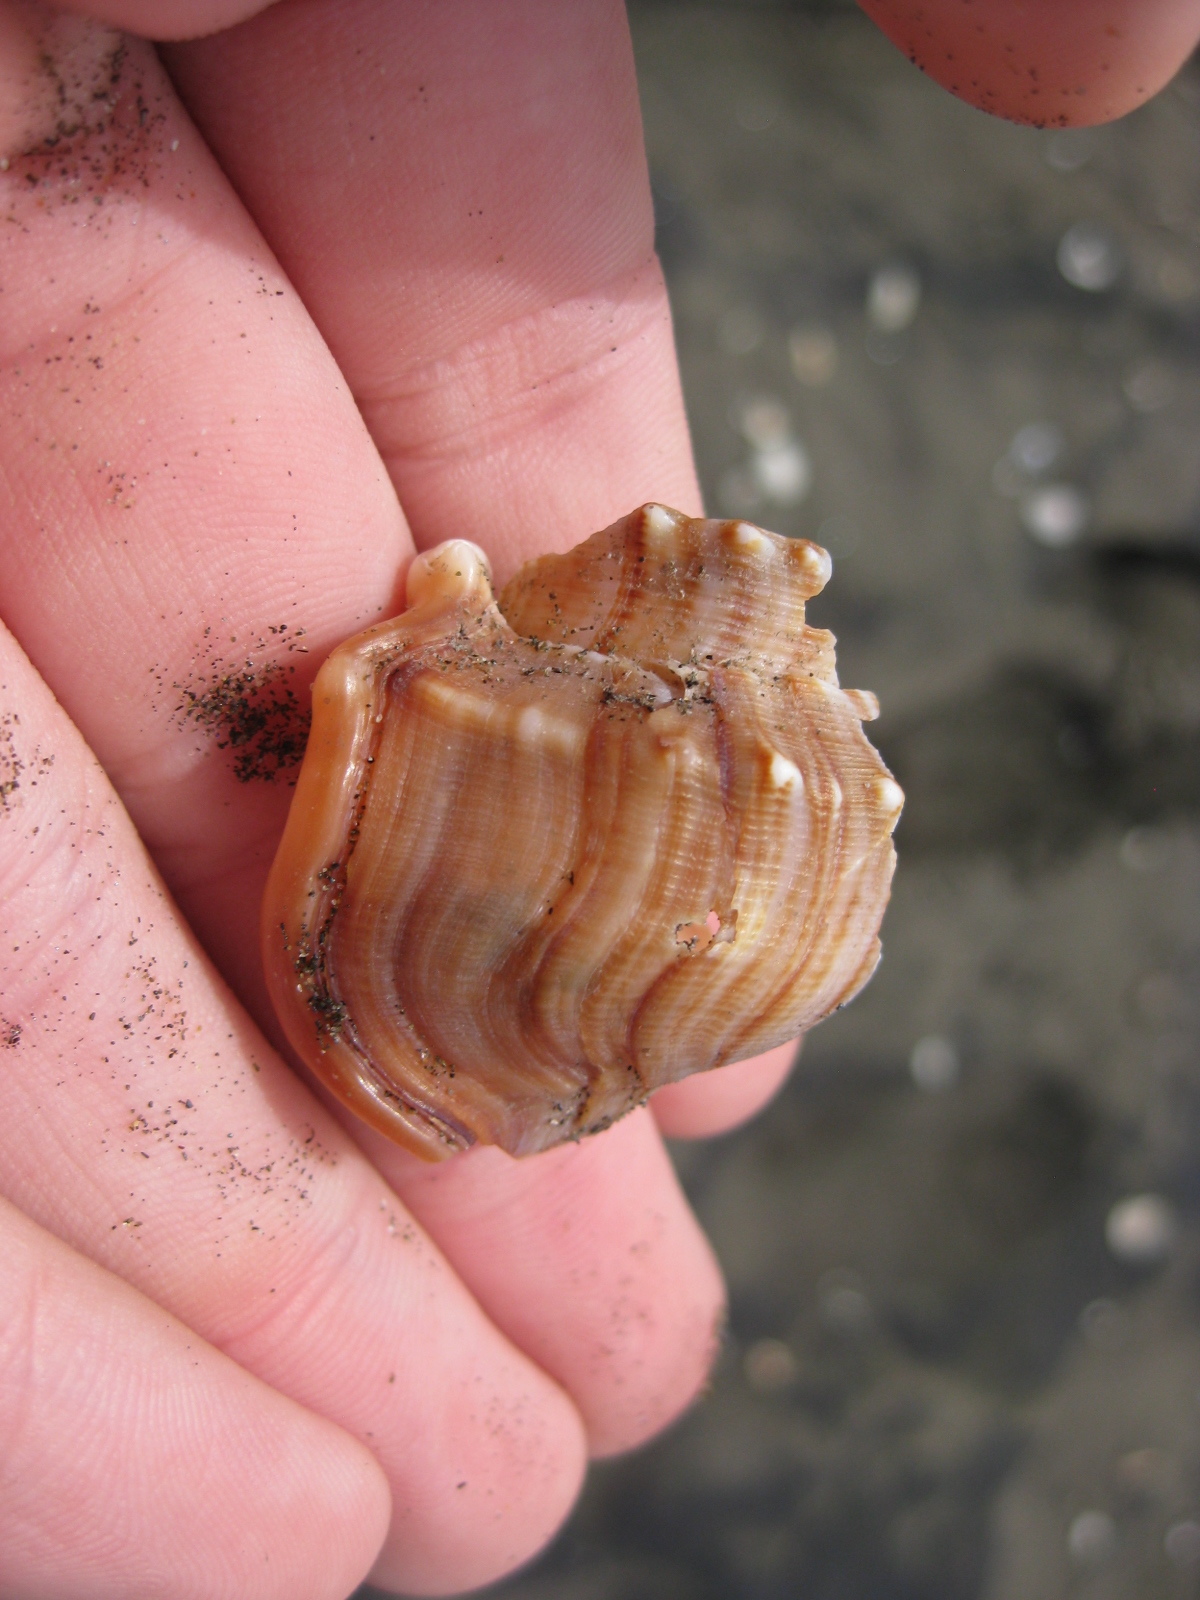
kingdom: Animalia
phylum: Mollusca
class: Gastropoda
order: Littorinimorpha
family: Struthiolariidae
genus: Struthiolaria
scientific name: Struthiolaria papulosa
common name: Large ostrich foot
